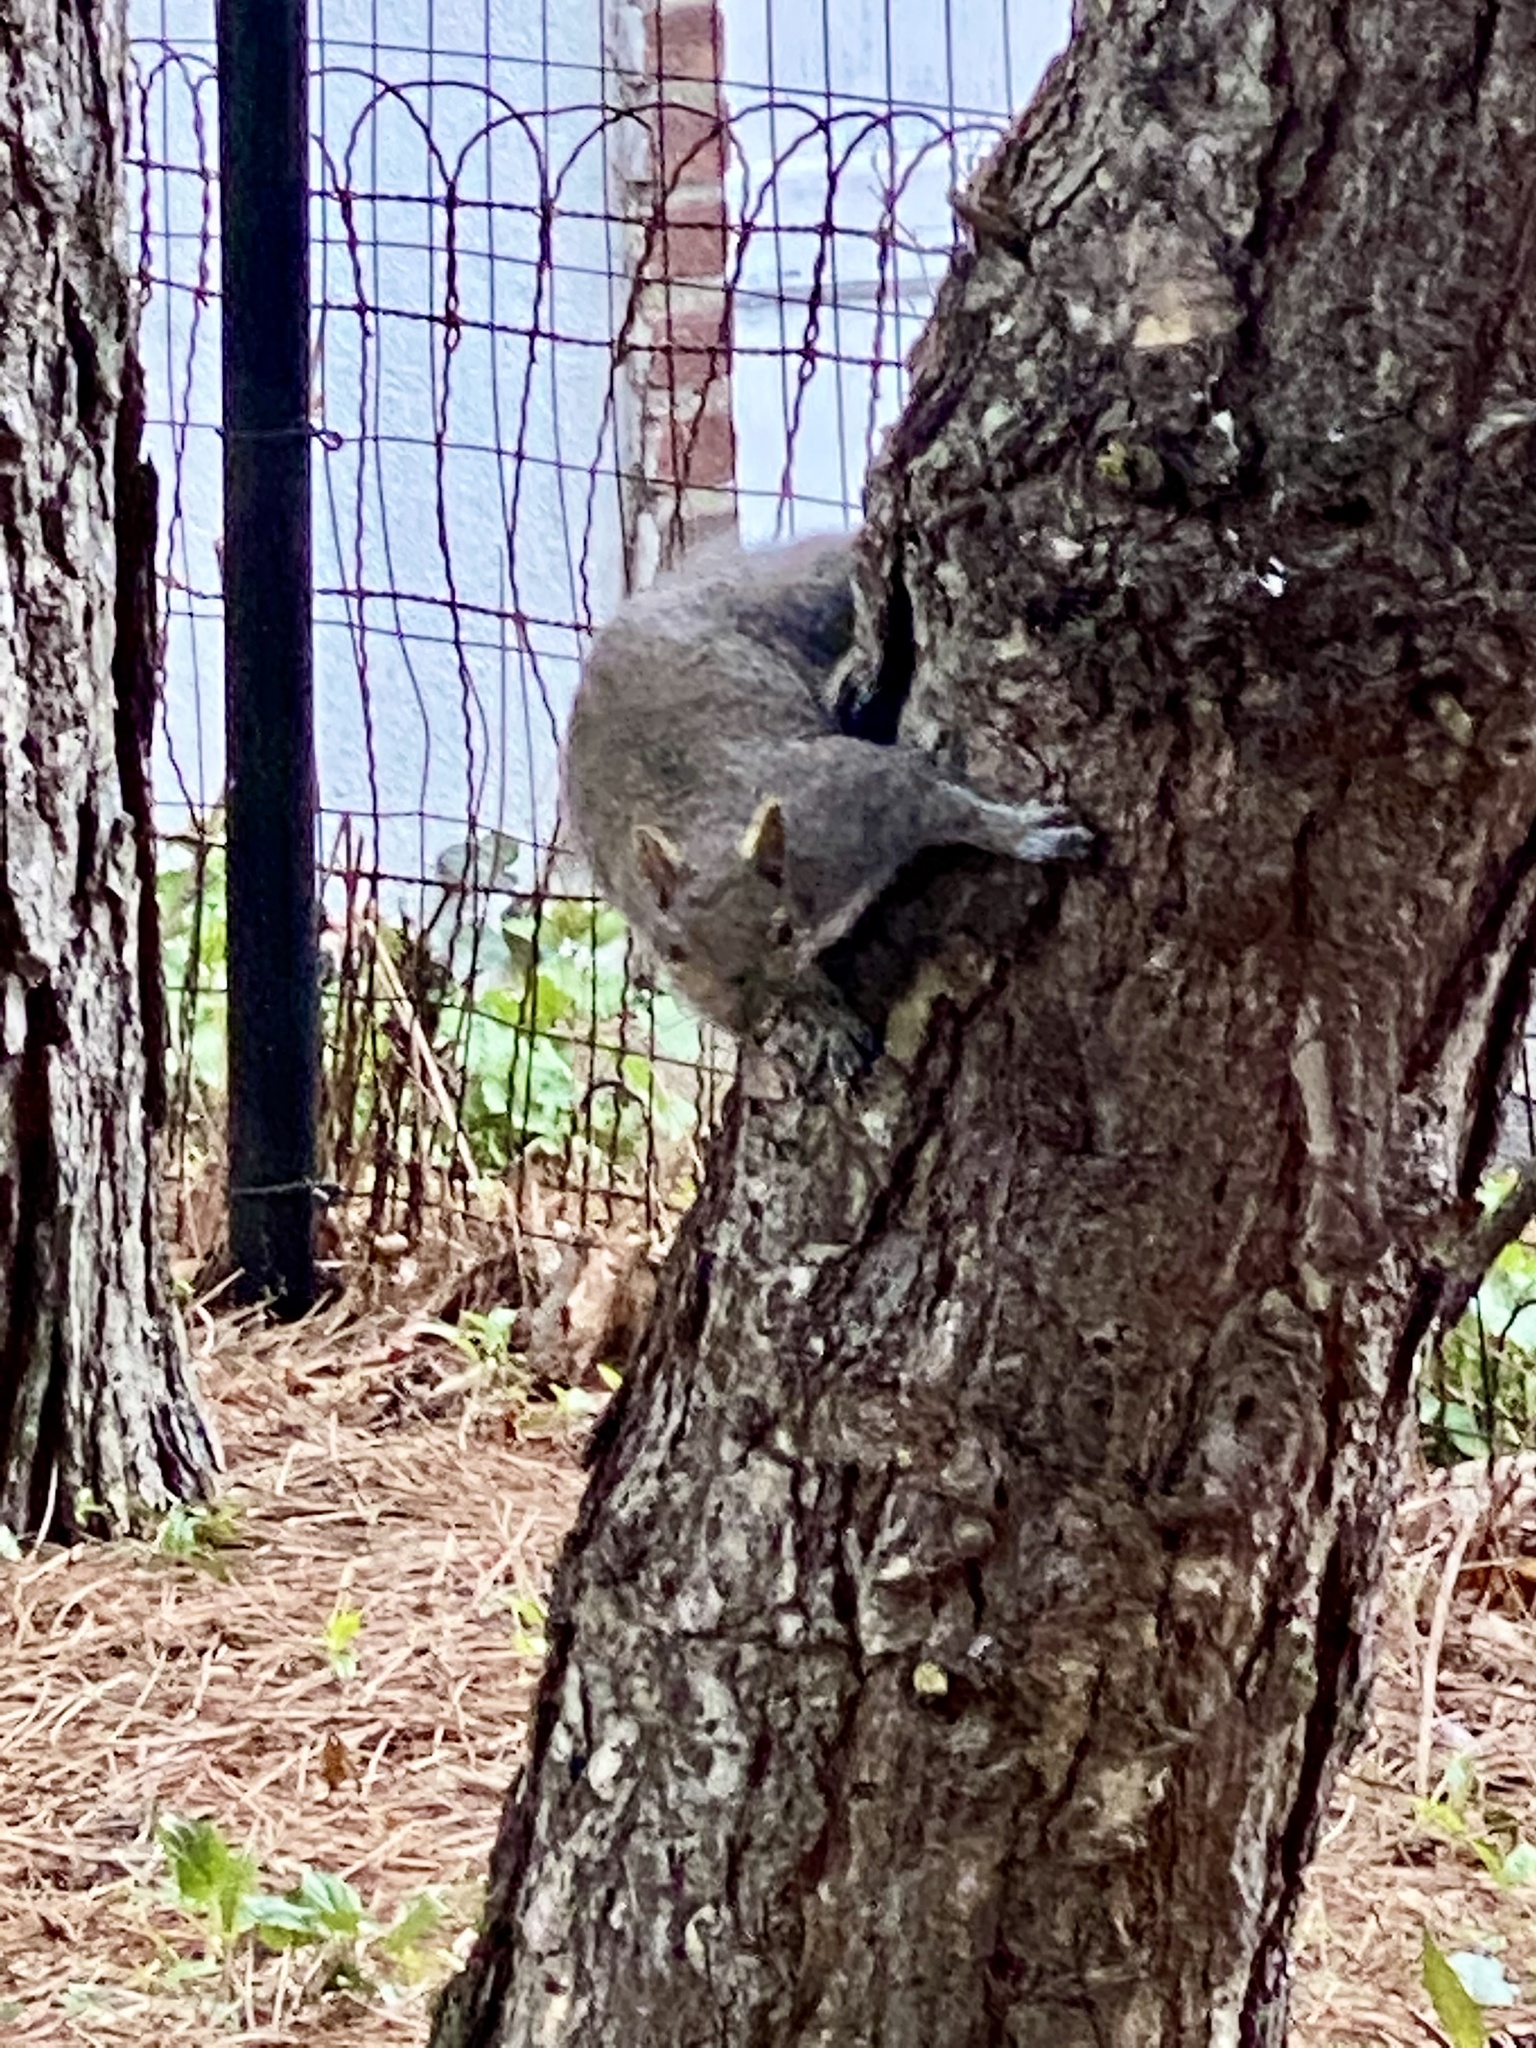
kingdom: Animalia
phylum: Chordata
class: Mammalia
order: Rodentia
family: Sciuridae
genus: Sciurus
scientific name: Sciurus carolinensis
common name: Eastern gray squirrel
